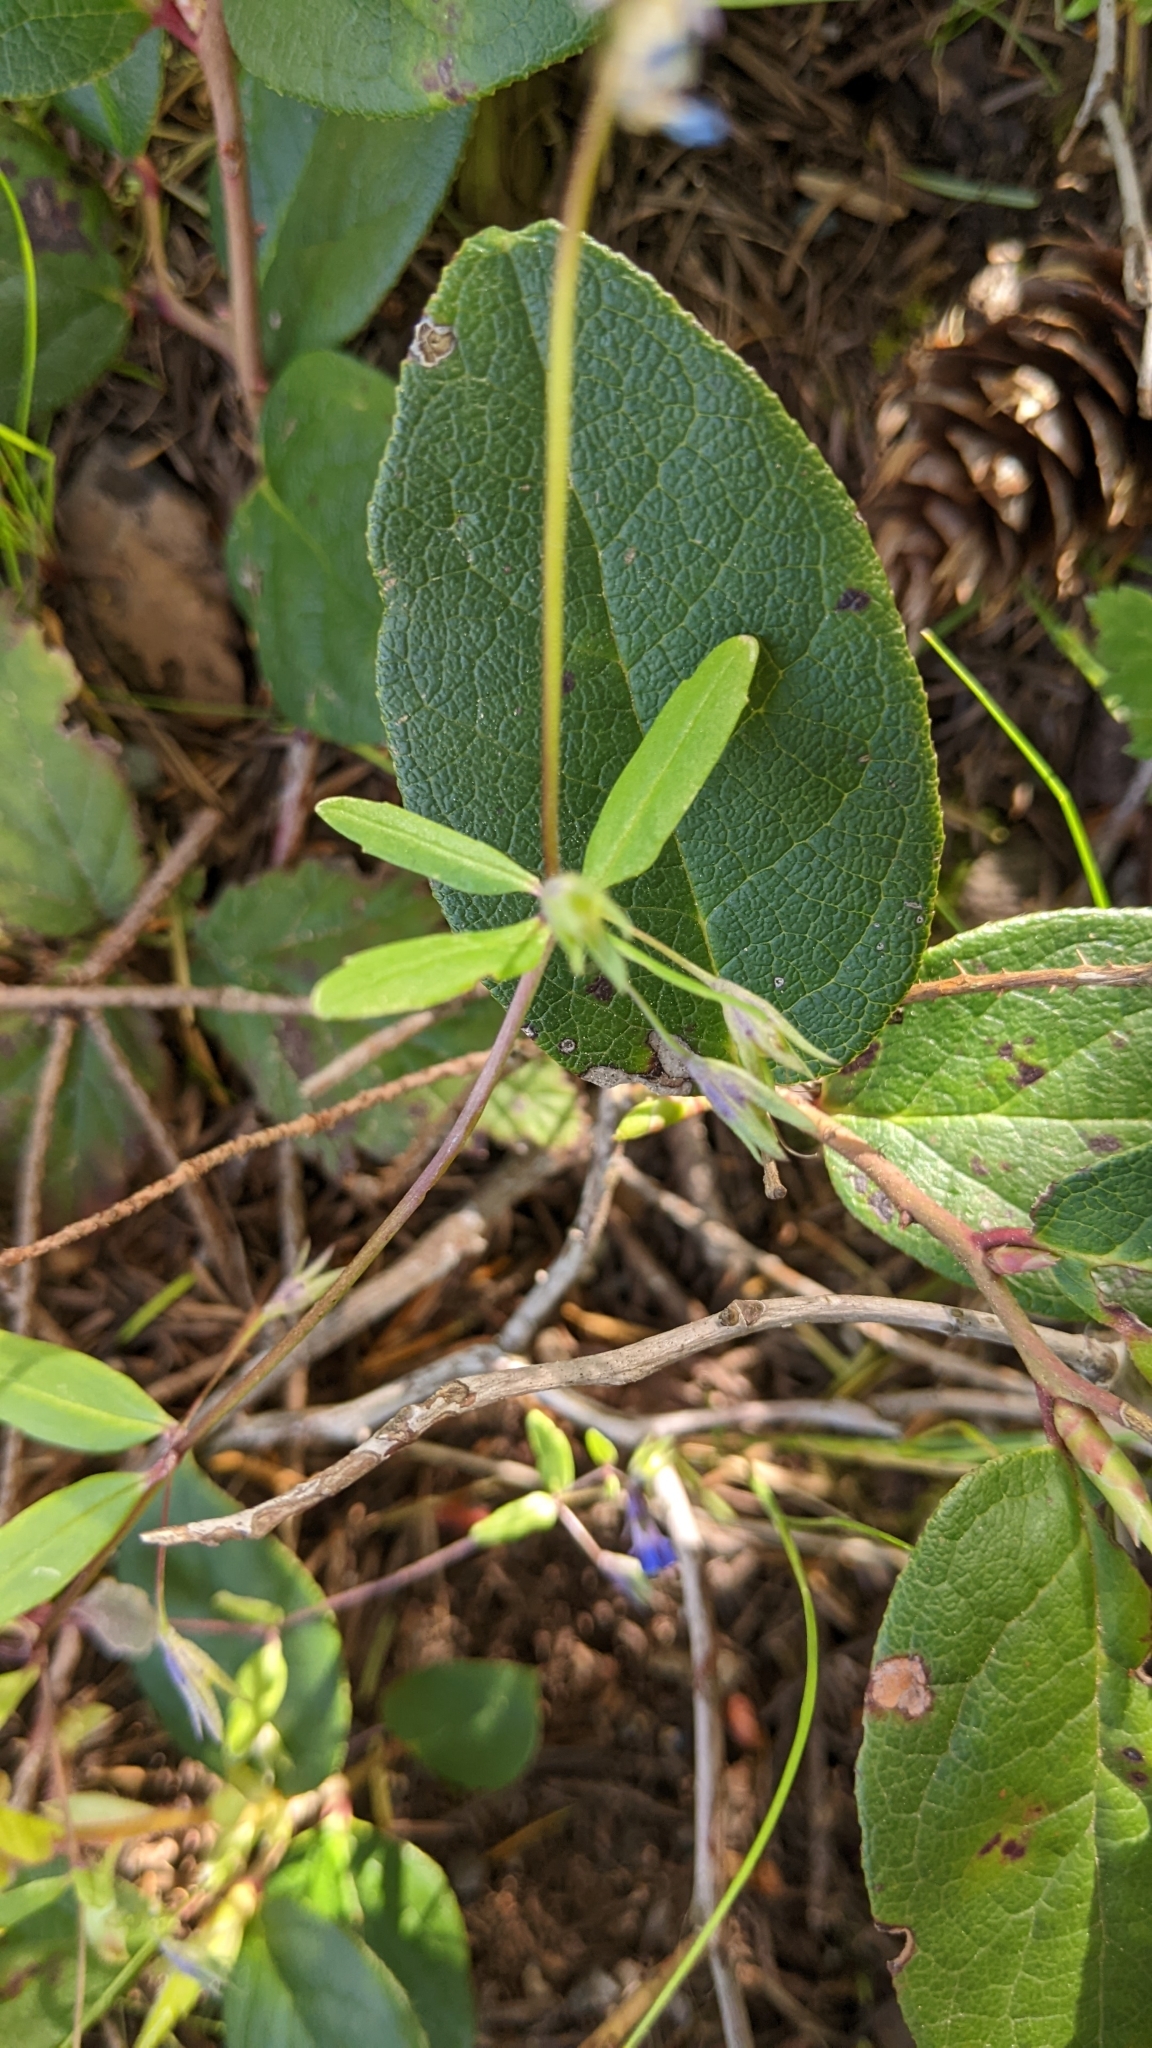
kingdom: Plantae
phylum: Tracheophyta
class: Magnoliopsida
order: Lamiales
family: Plantaginaceae
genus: Collinsia
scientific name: Collinsia parviflora
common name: Blue-lips
